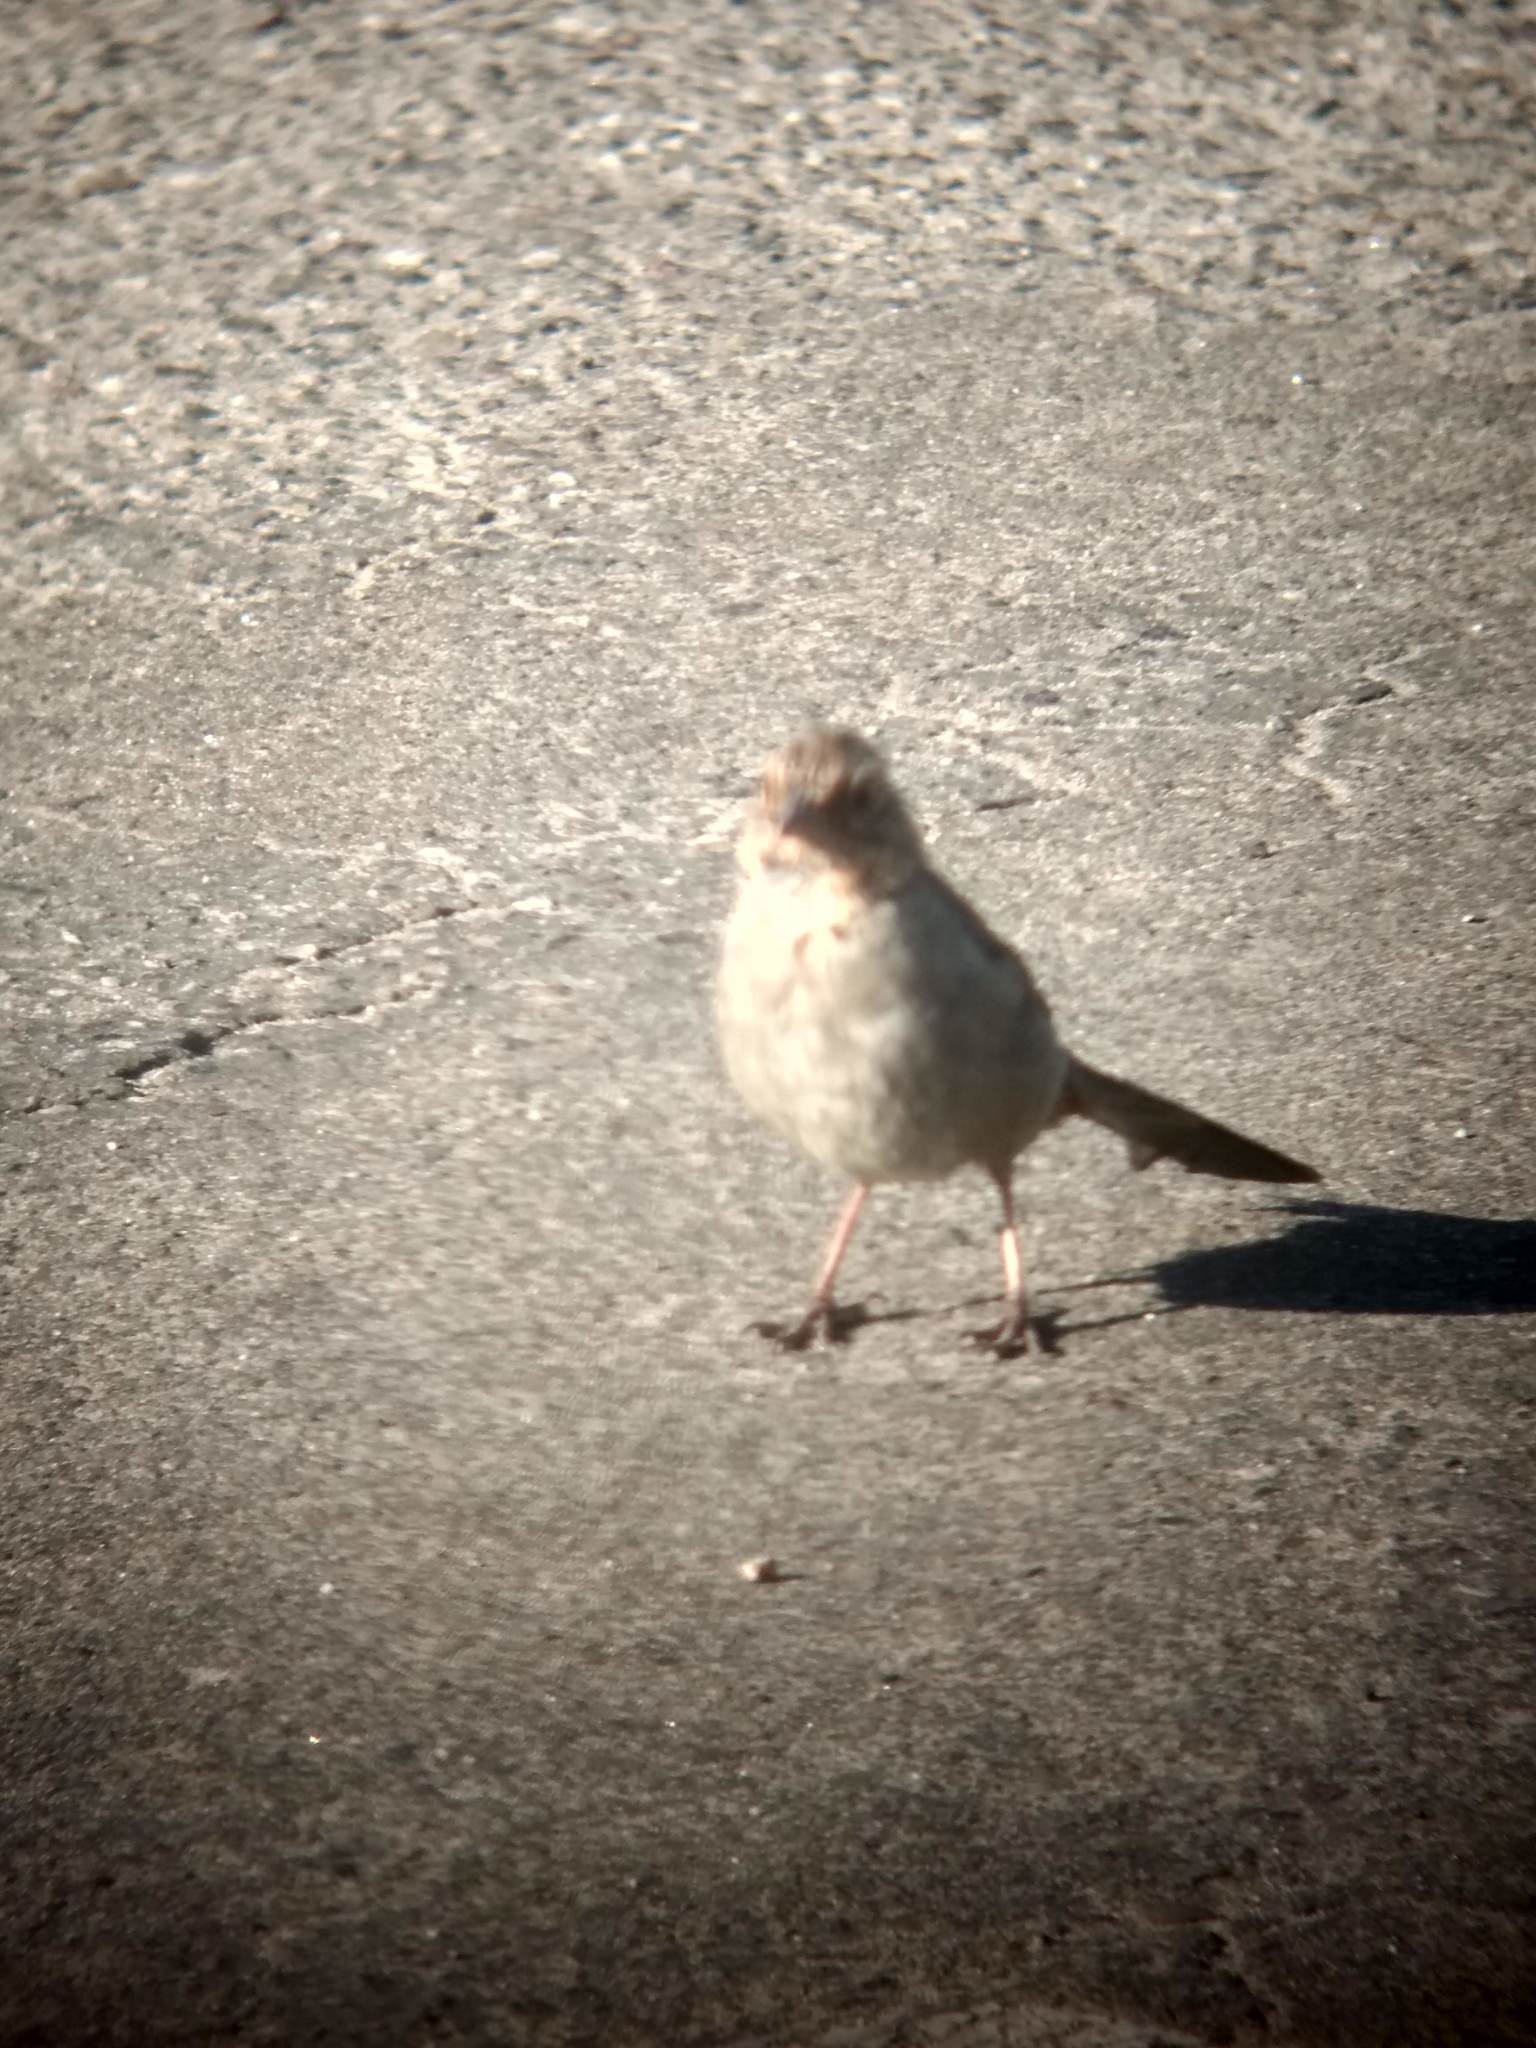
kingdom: Animalia
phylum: Chordata
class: Aves
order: Passeriformes
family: Passerellidae
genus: Melozone
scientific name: Melozone crissalis
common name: California towhee
